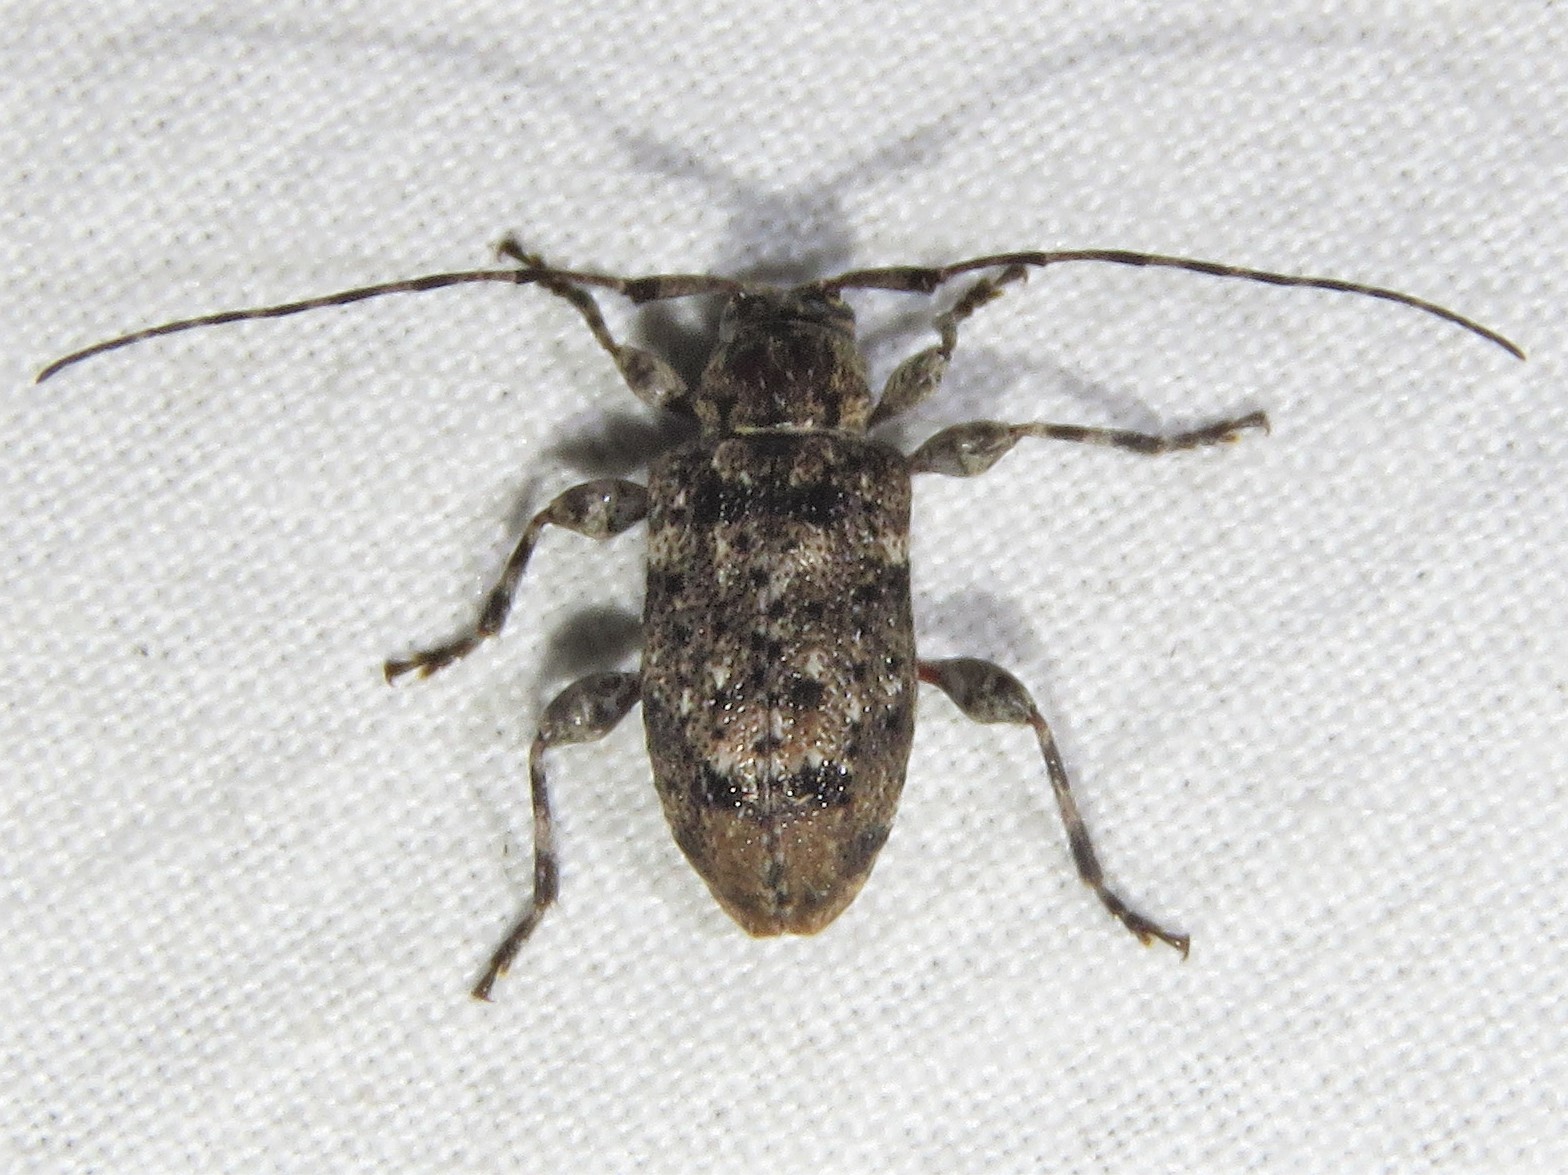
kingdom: Animalia
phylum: Arthropoda
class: Insecta
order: Coleoptera
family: Cerambycidae
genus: Astylopsis
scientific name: Astylopsis sexguttata
